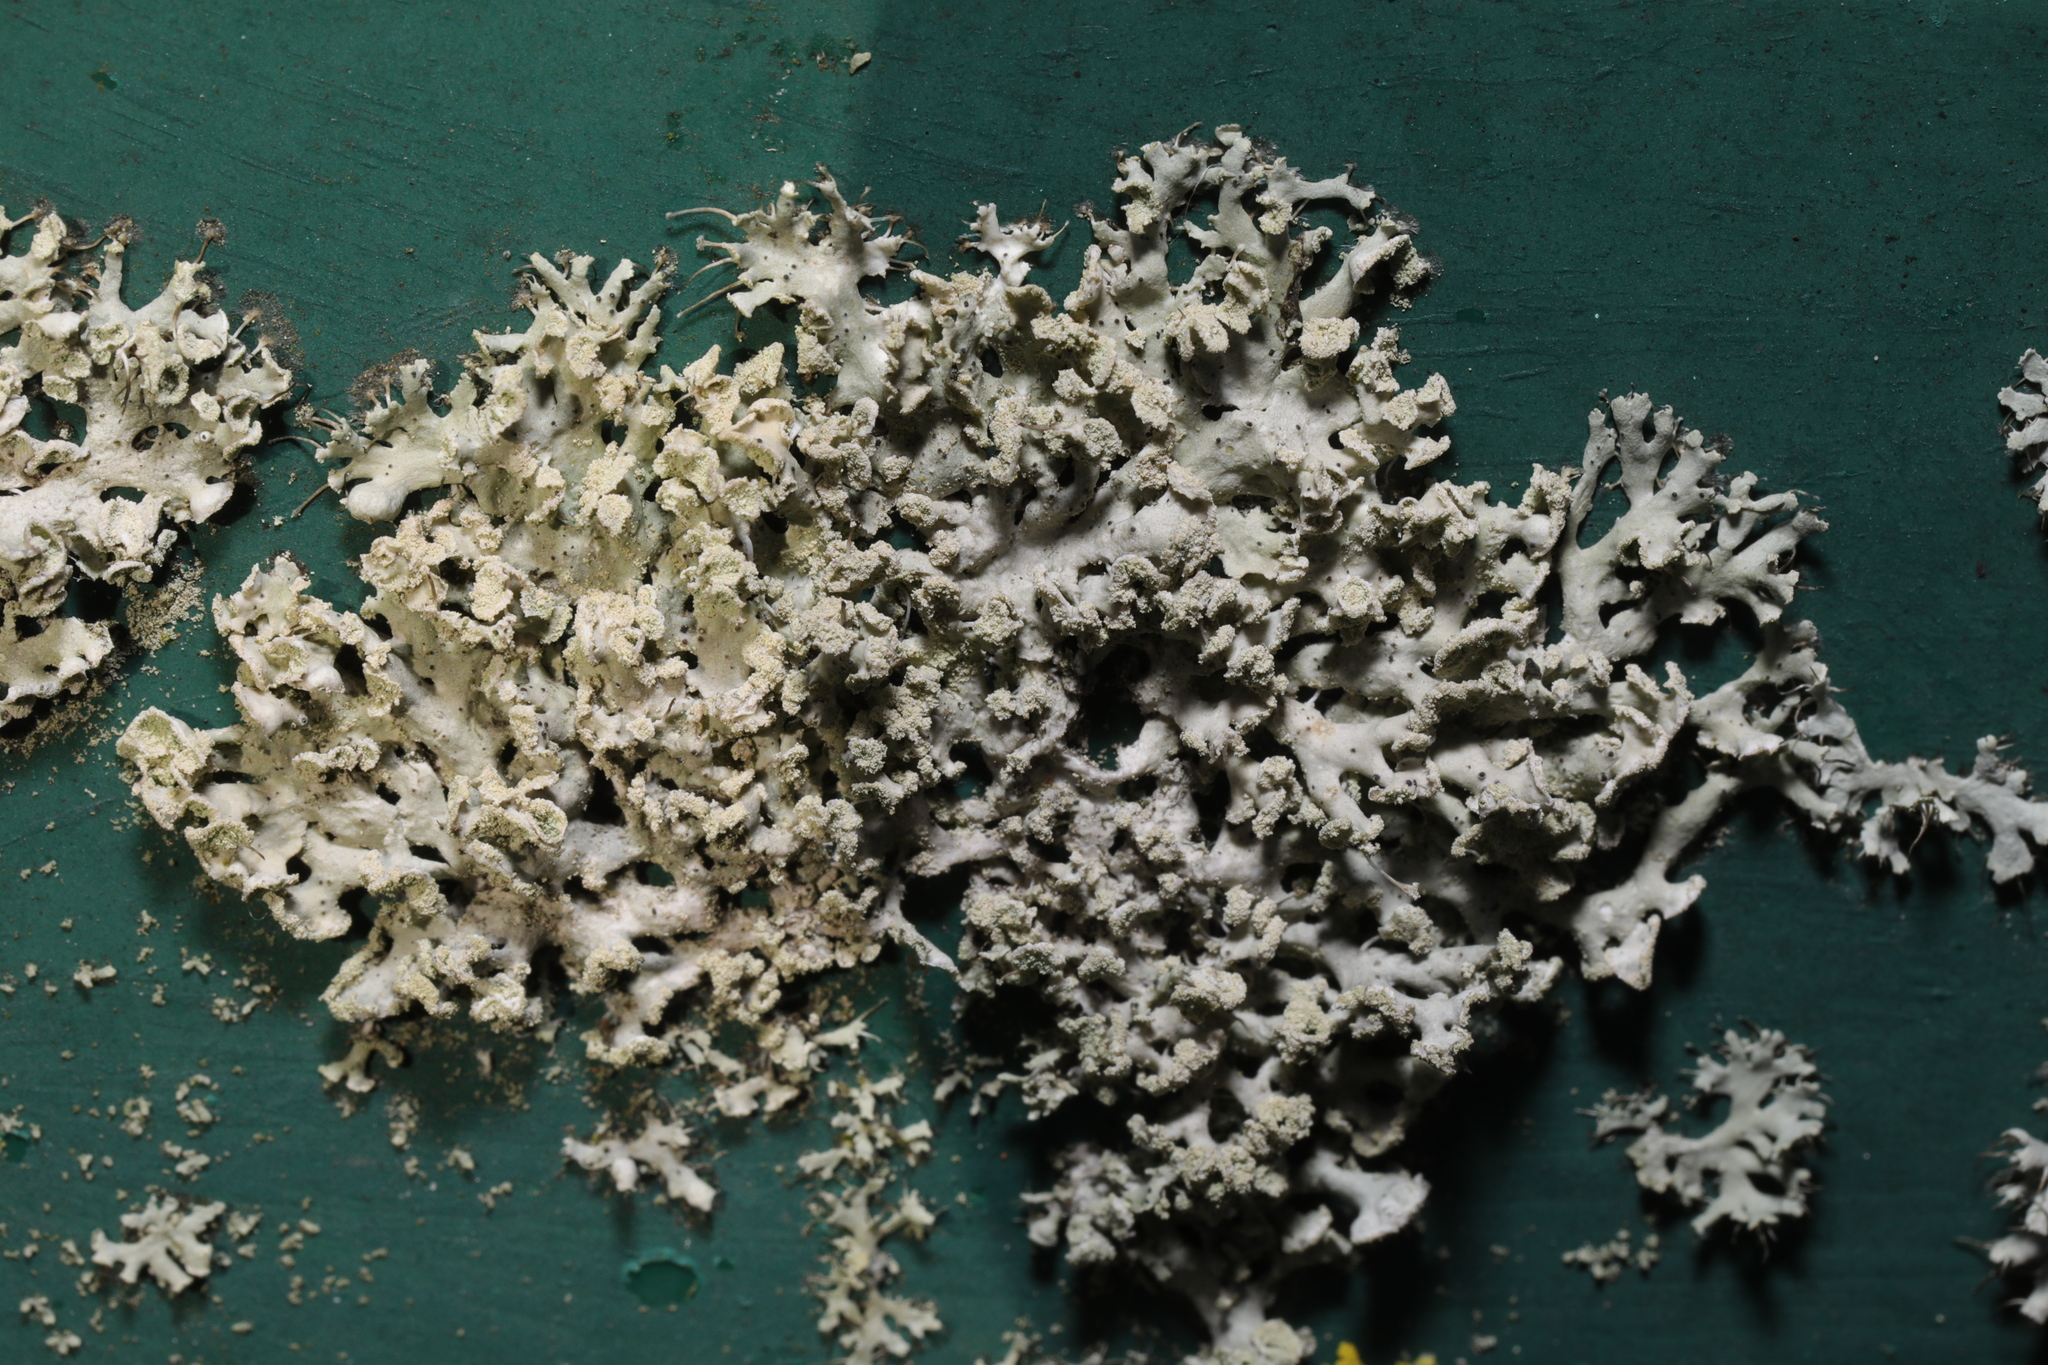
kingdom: Fungi
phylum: Ascomycota
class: Lecanoromycetes
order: Caliciales
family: Physciaceae
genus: Physcia
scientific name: Physcia tenella
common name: Fringed rosette lichen
